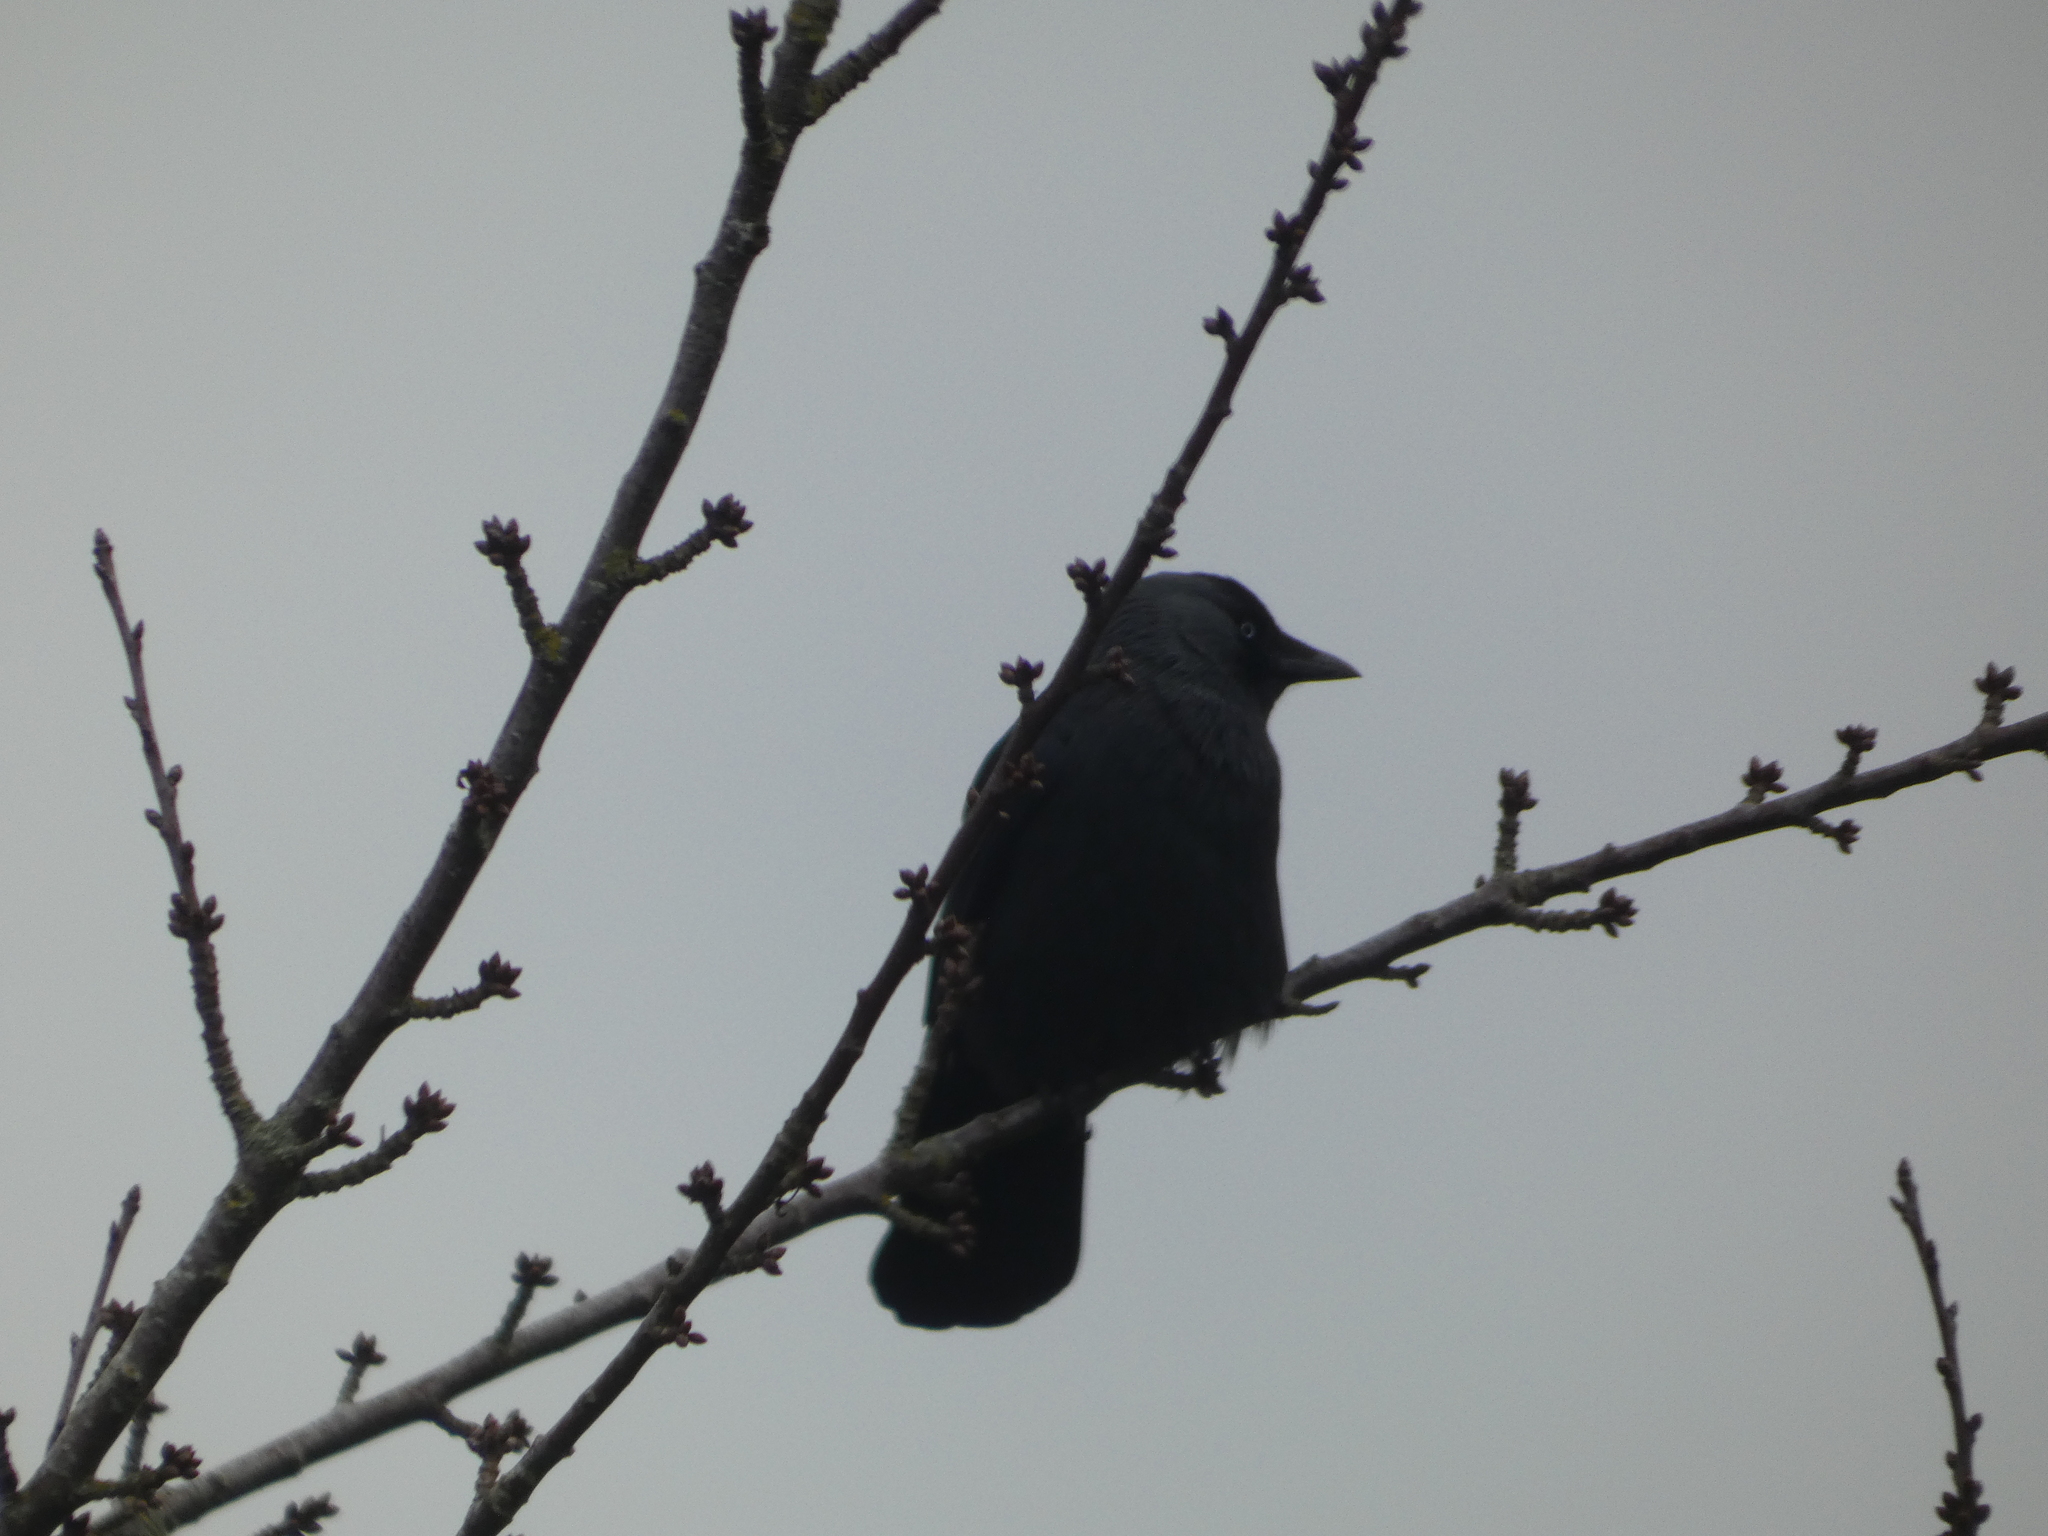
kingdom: Animalia
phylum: Chordata
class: Aves
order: Passeriformes
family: Corvidae
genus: Coloeus
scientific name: Coloeus monedula
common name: Western jackdaw
